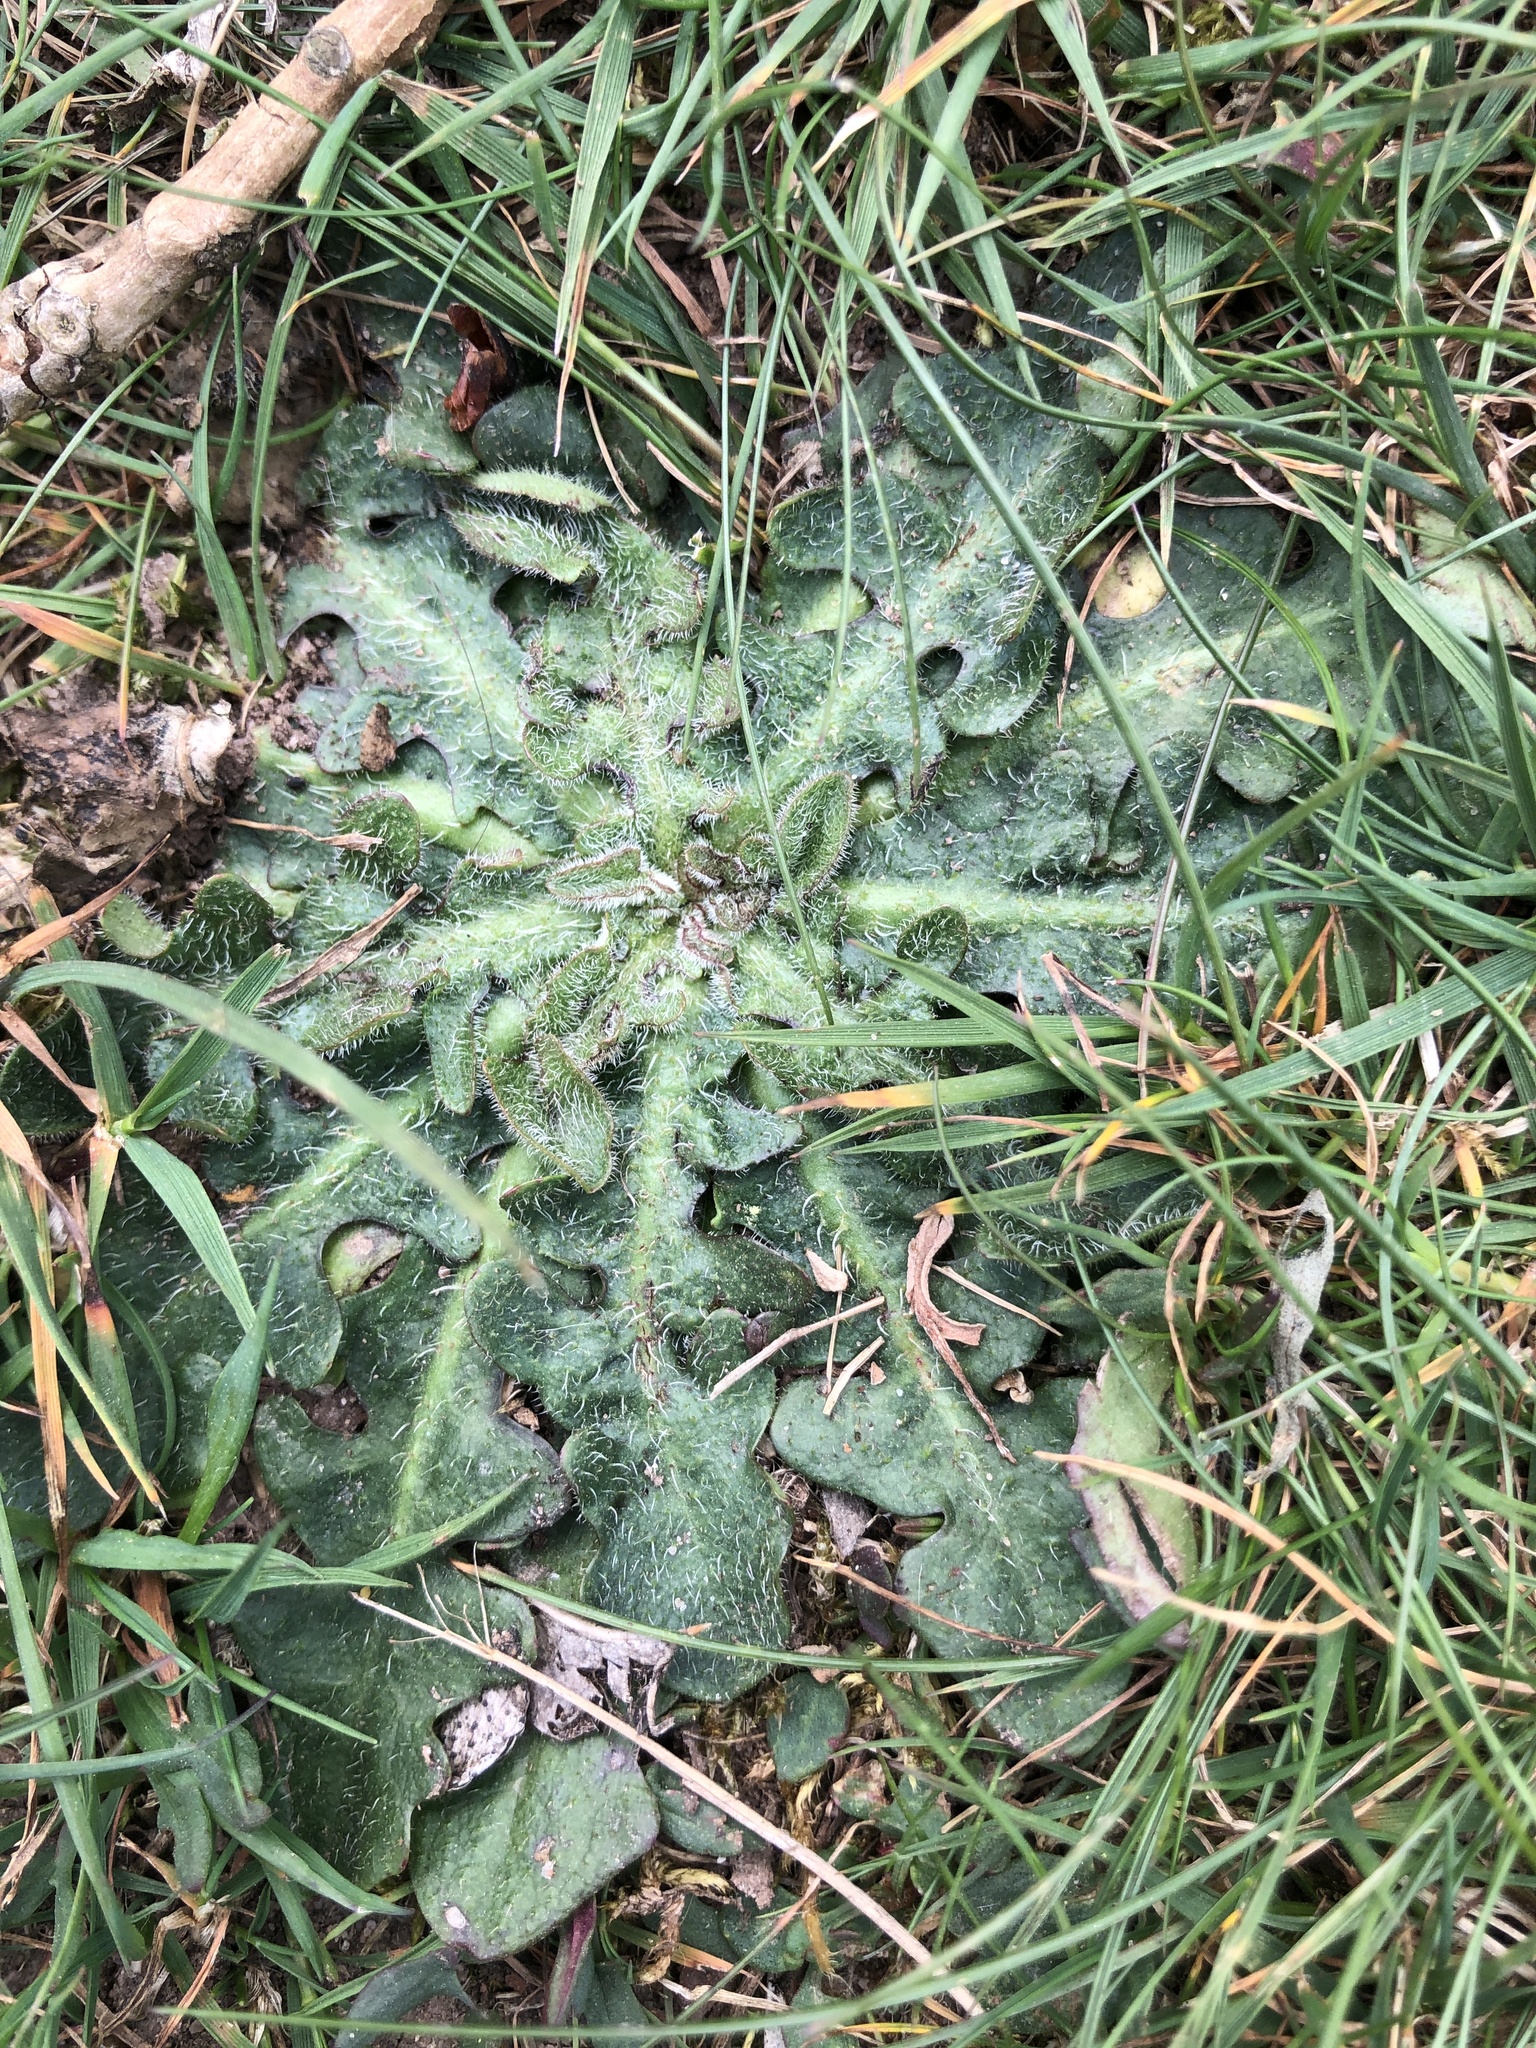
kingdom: Plantae
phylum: Tracheophyta
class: Magnoliopsida
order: Asterales
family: Asteraceae
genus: Hypochaeris
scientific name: Hypochaeris radicata
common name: Flatweed
